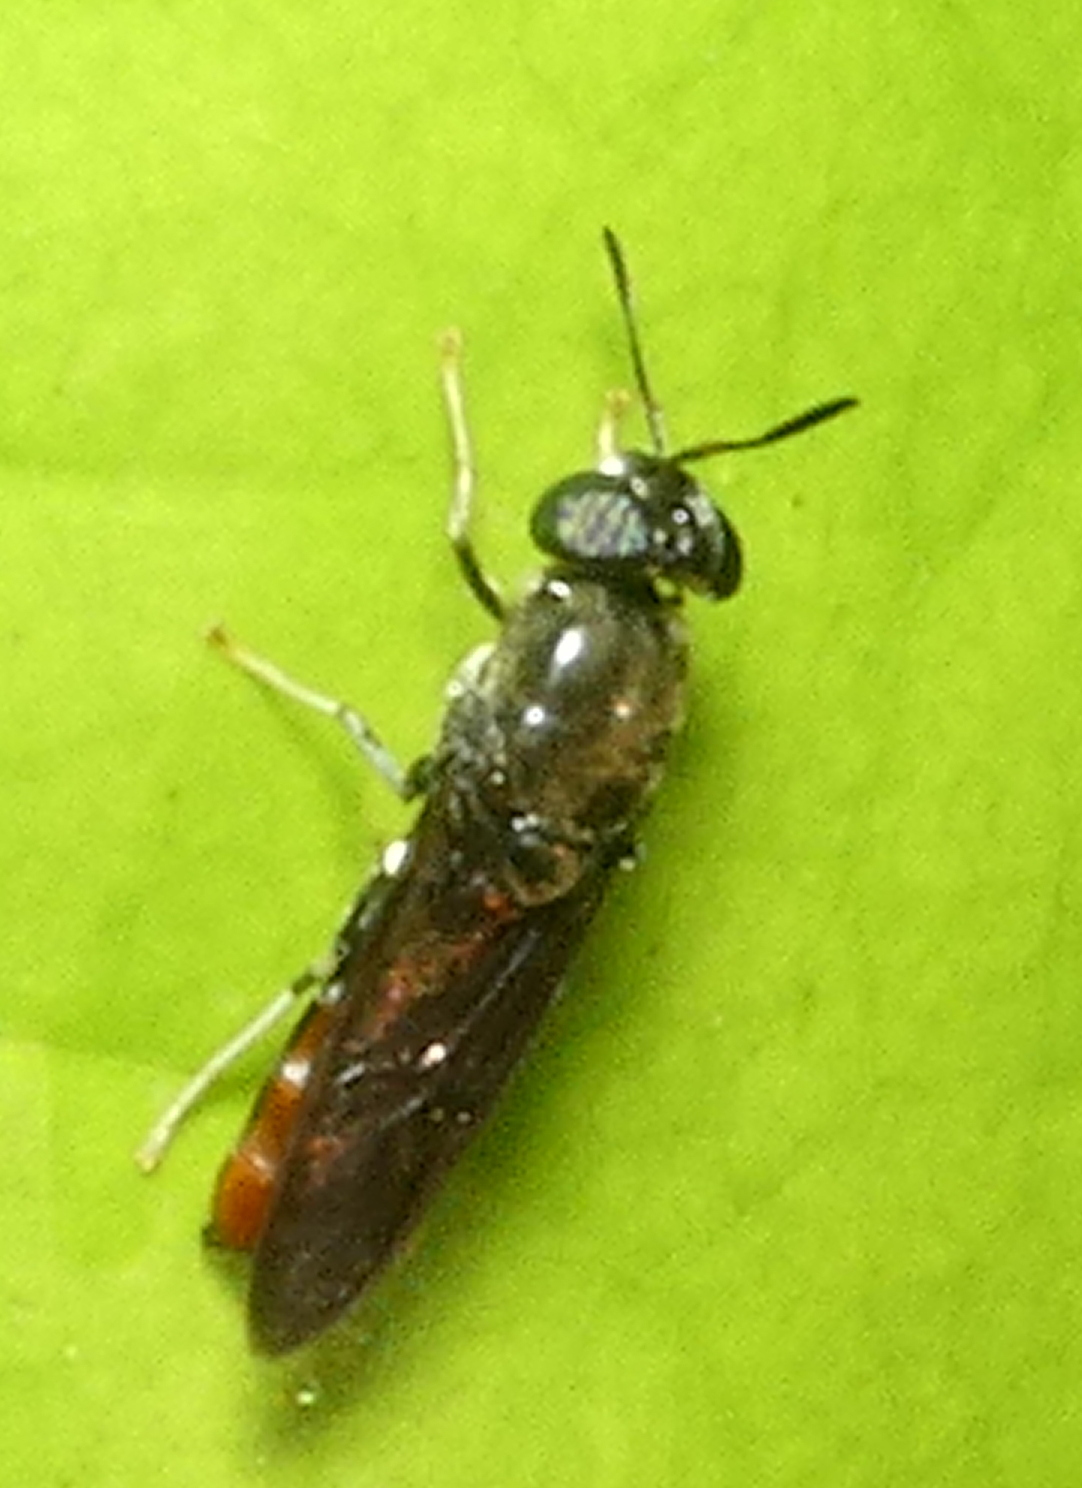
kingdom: Animalia
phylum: Arthropoda
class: Insecta
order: Diptera
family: Stratiomyidae
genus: Hermetia
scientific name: Hermetia illucens
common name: Black soldier fly
